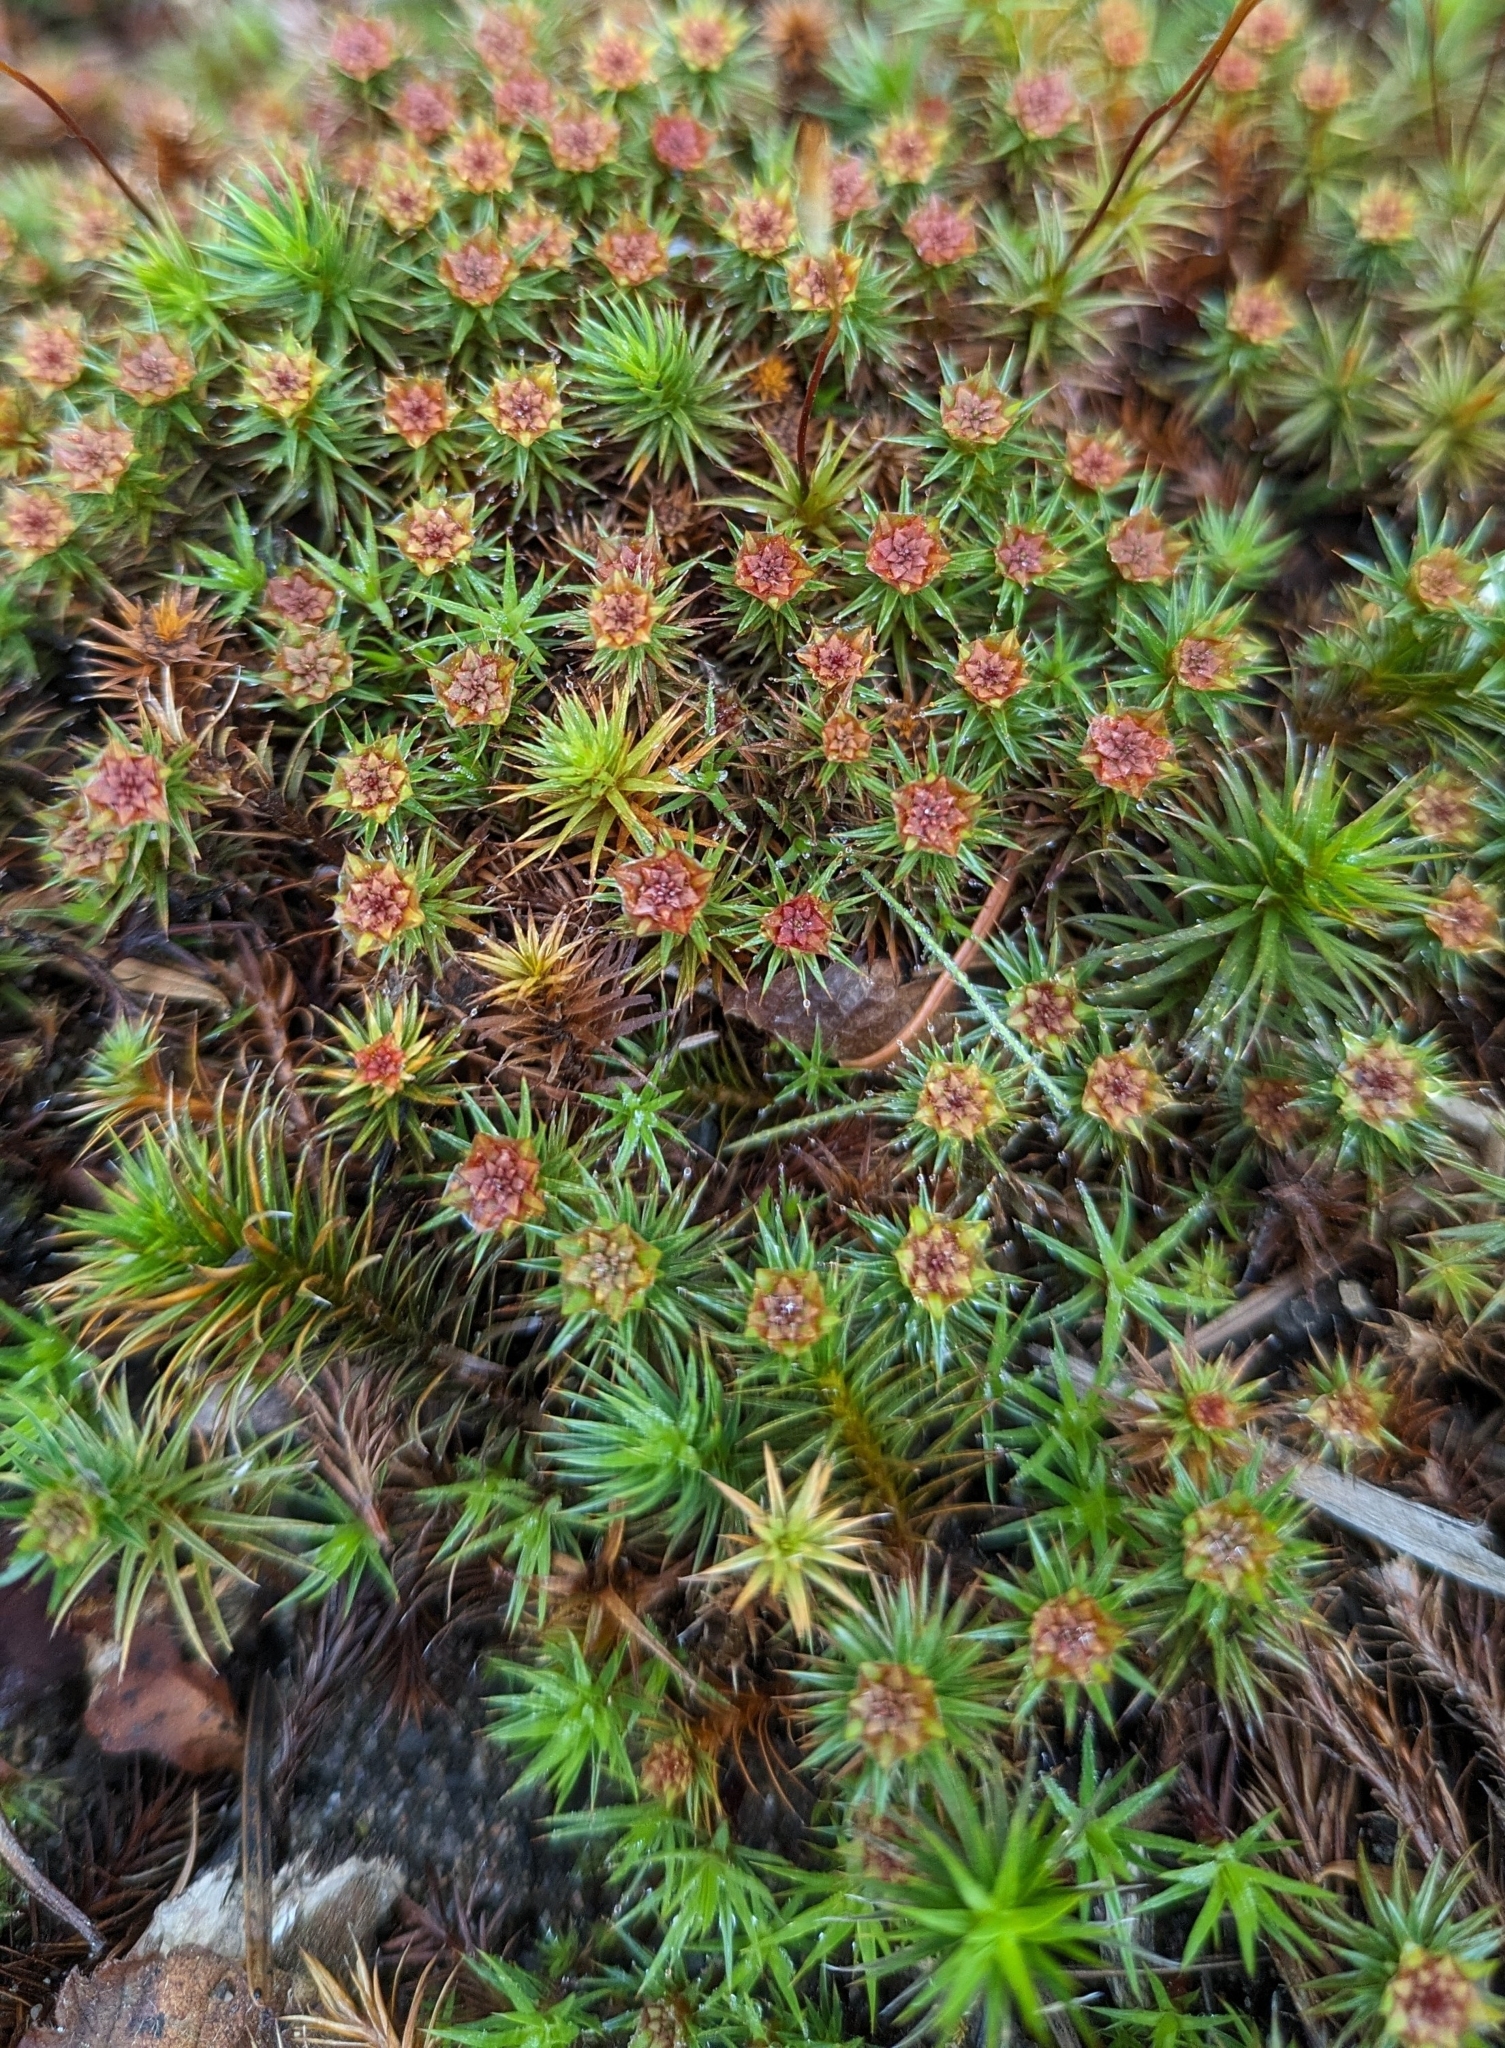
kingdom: Plantae
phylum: Bryophyta
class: Polytrichopsida
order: Polytrichales
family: Polytrichaceae
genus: Polytrichum
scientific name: Polytrichum juniperinum
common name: Juniper haircap moss
